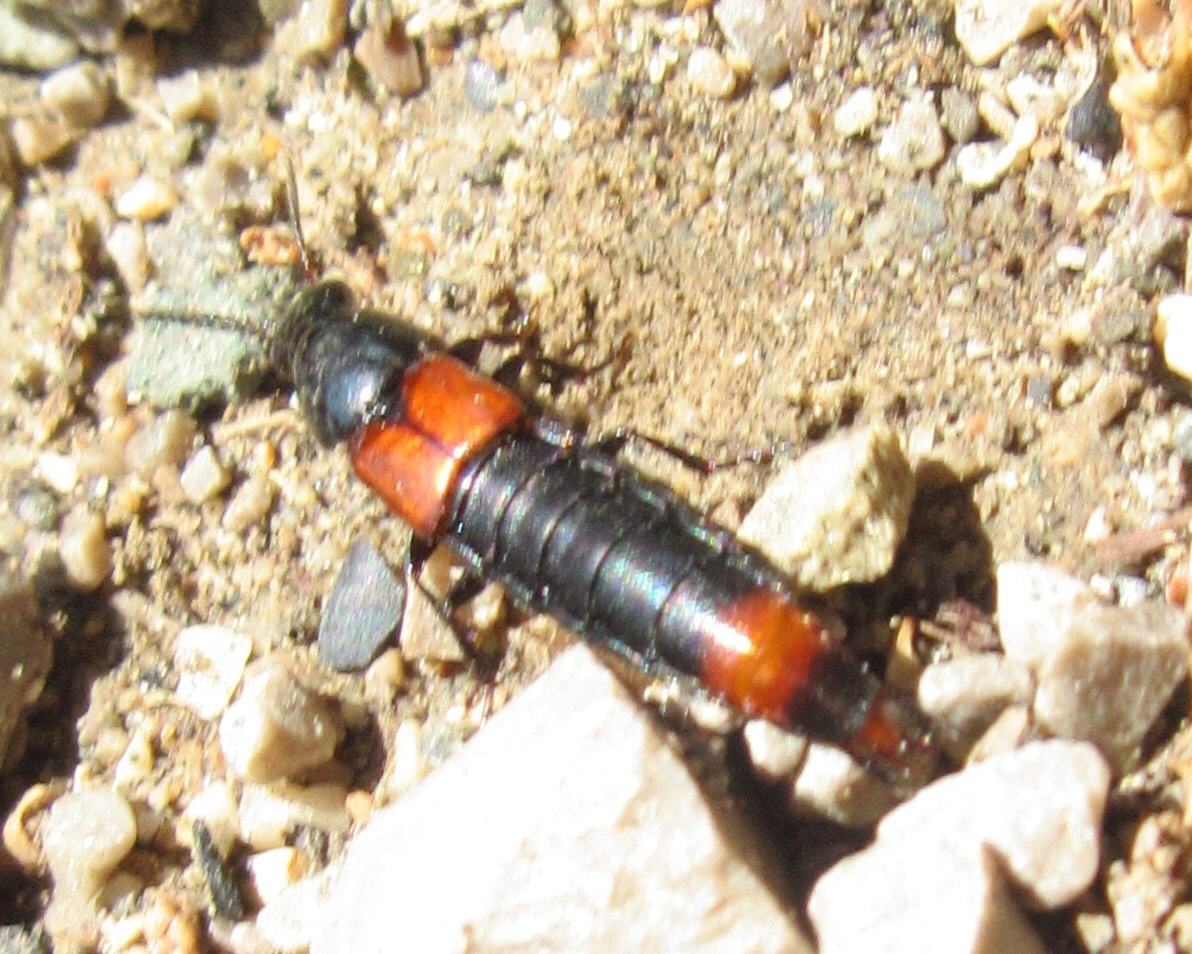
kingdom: Animalia
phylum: Arthropoda
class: Insecta
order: Coleoptera
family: Staphylinidae
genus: Astrapaeus
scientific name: Astrapaeus ulmi
